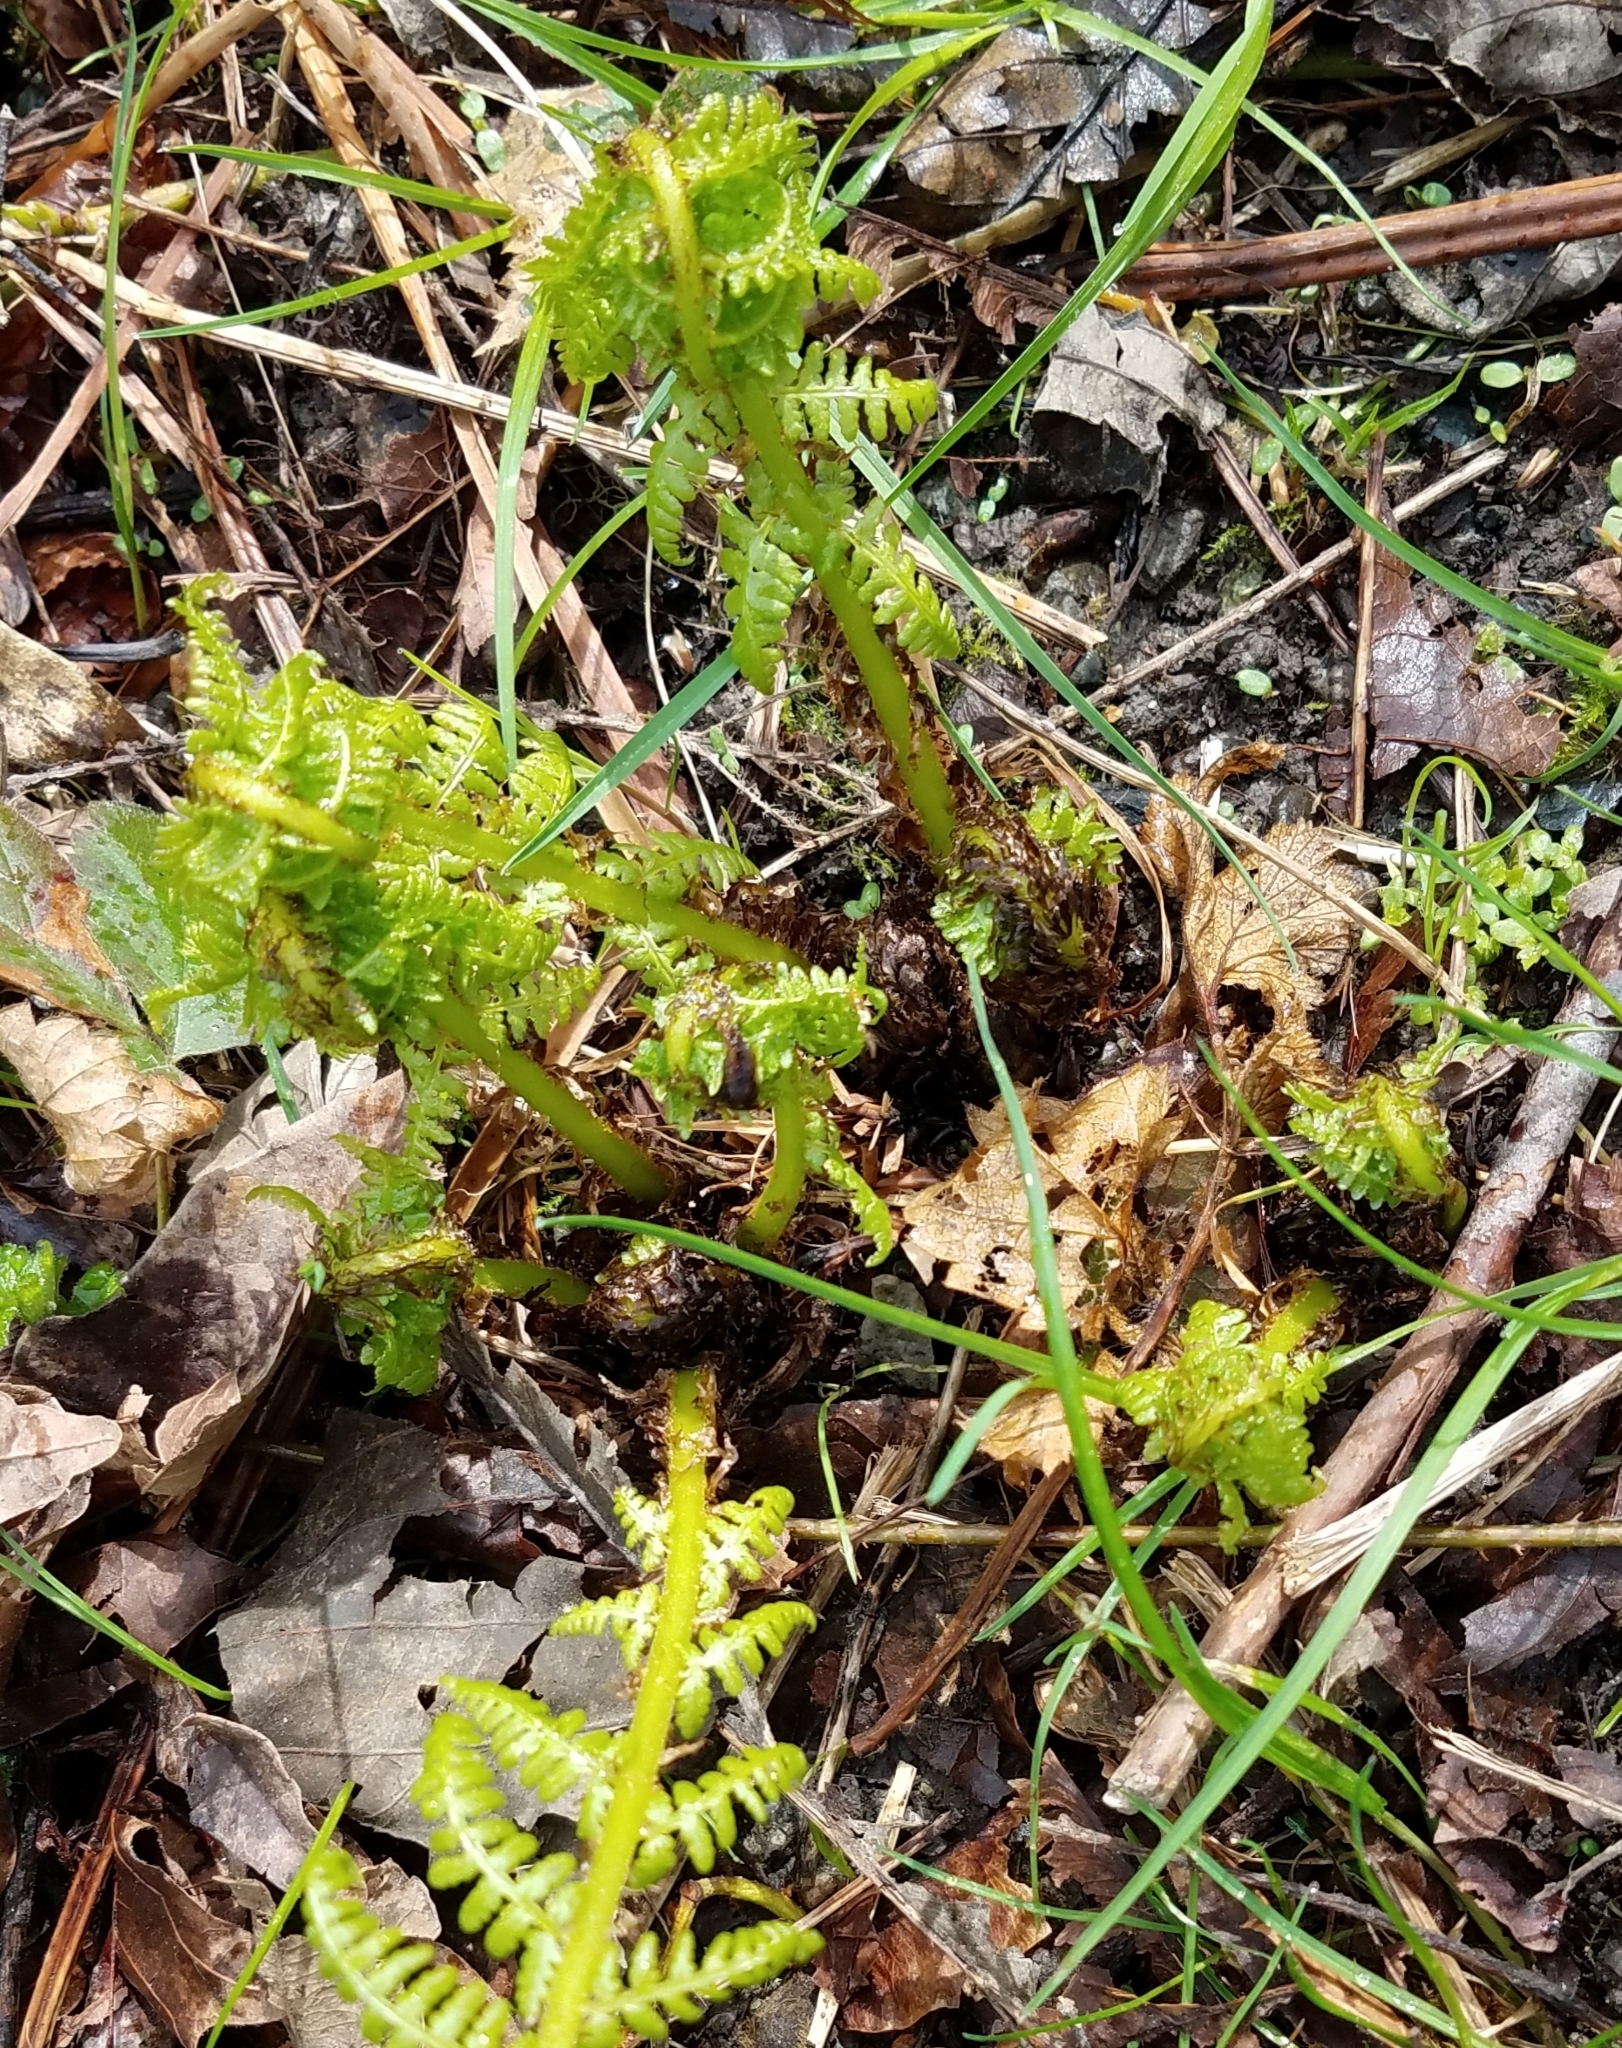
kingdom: Plantae
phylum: Tracheophyta
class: Polypodiopsida
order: Polypodiales
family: Athyriaceae
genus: Athyrium
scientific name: Athyrium filix-femina
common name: Lady fern
